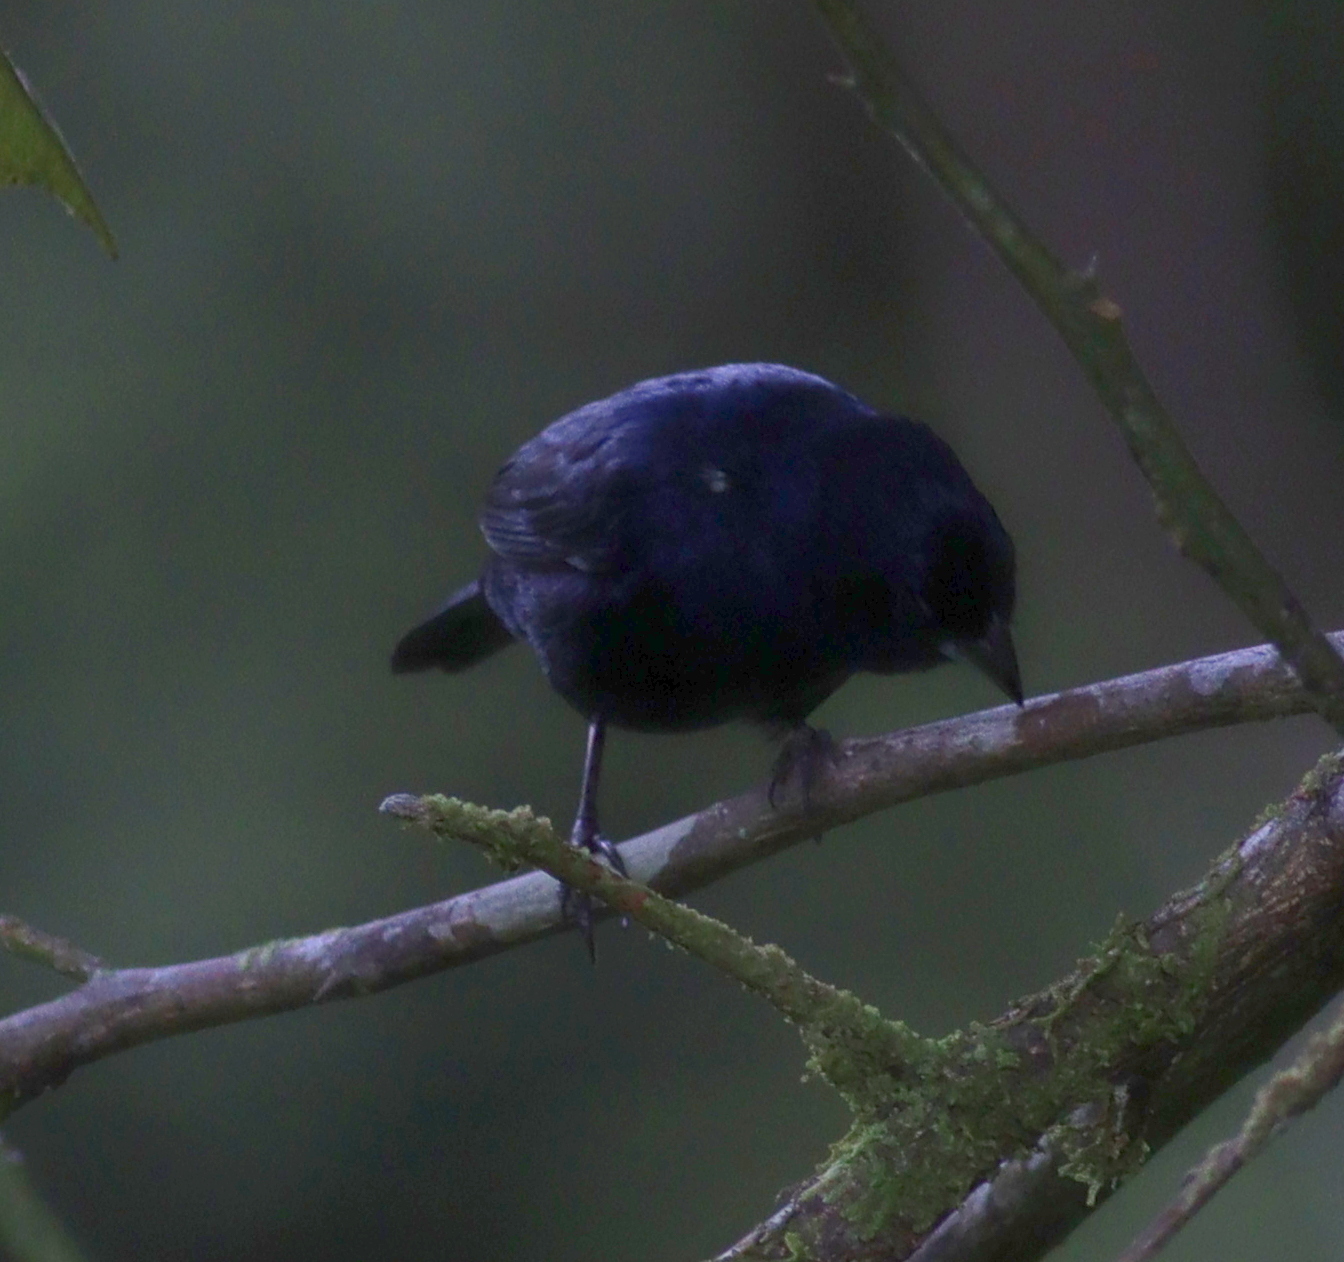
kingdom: Animalia
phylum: Chordata
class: Aves
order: Passeriformes
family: Thraupidae
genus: Volatinia
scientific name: Volatinia jacarina
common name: Blue-black grassquit
